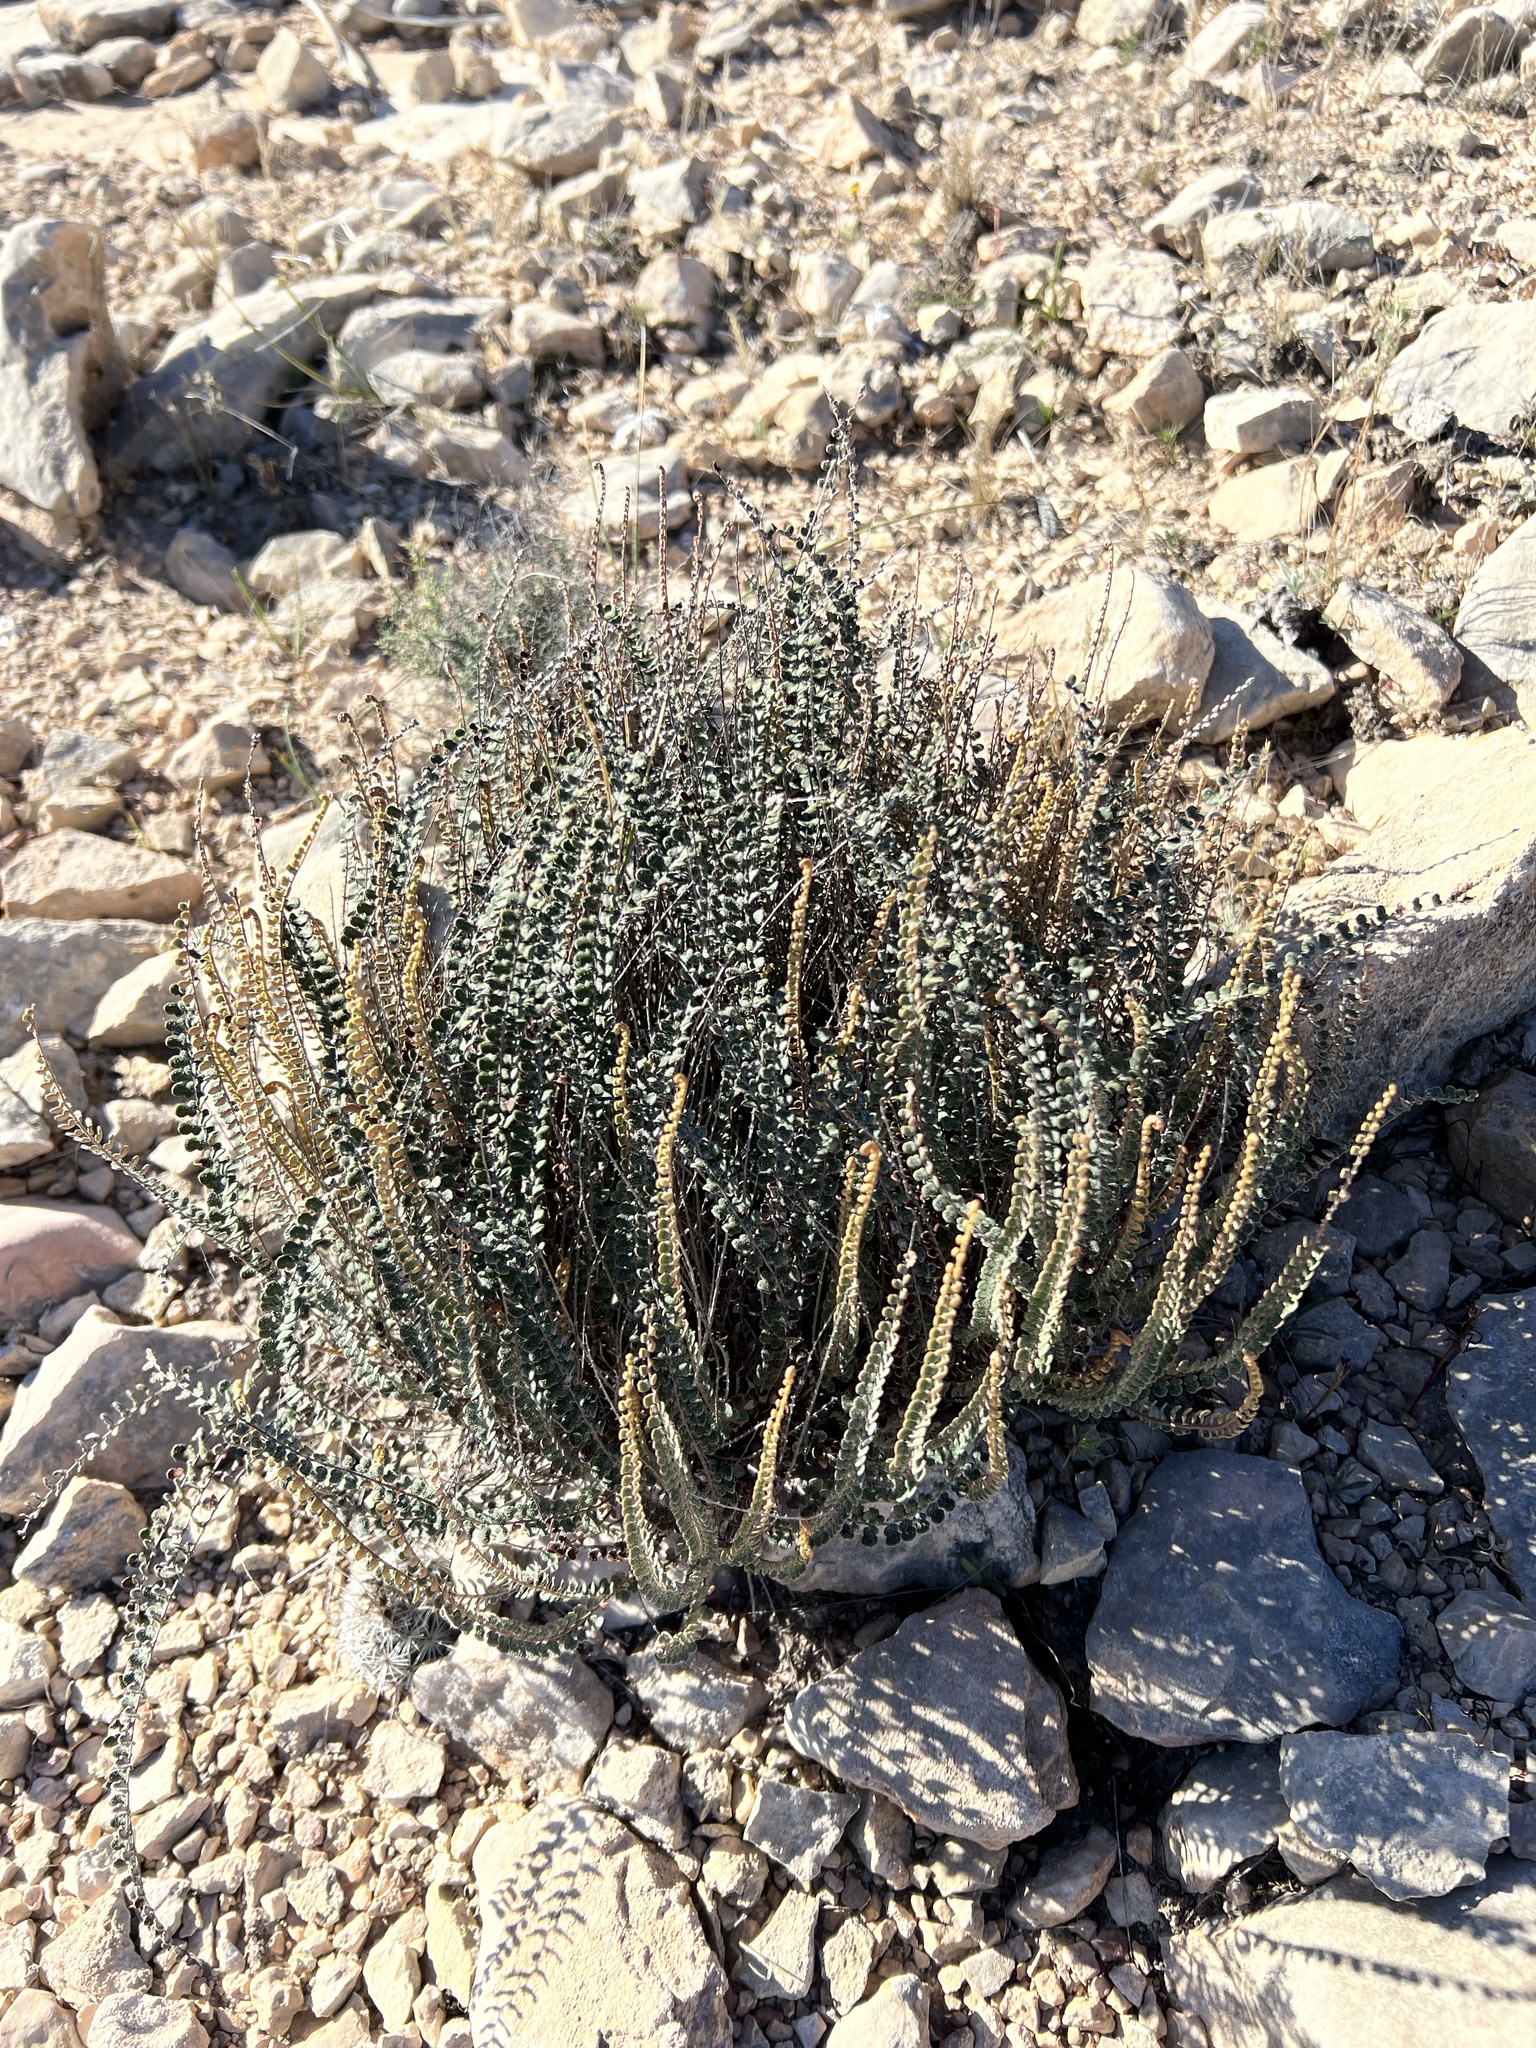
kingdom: Plantae
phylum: Tracheophyta
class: Polypodiopsida
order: Polypodiales
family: Pteridaceae
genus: Astrolepis
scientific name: Astrolepis cochisensis
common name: Scaly cloak fern
